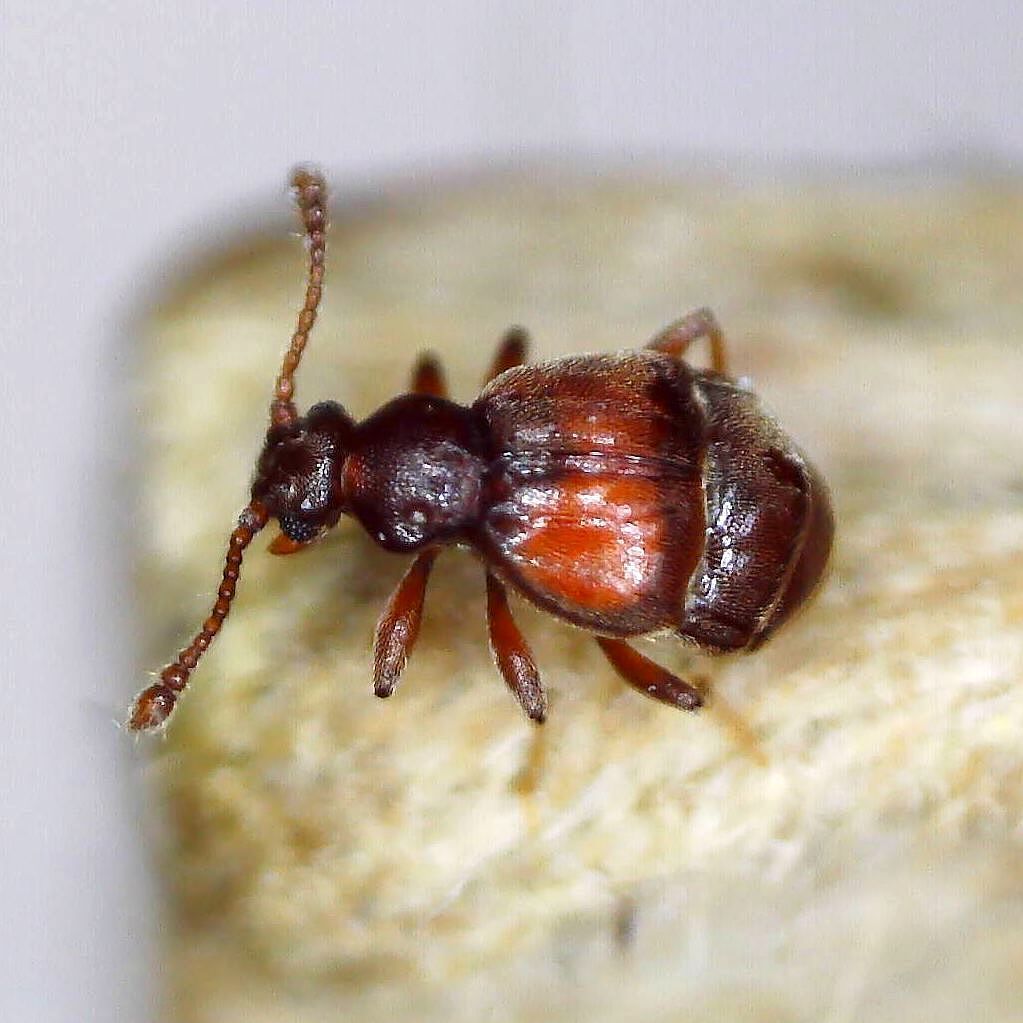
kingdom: Animalia
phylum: Arthropoda
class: Insecta
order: Coleoptera
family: Staphylinidae
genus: Reichenbachia
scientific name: Reichenbachia juncorum
